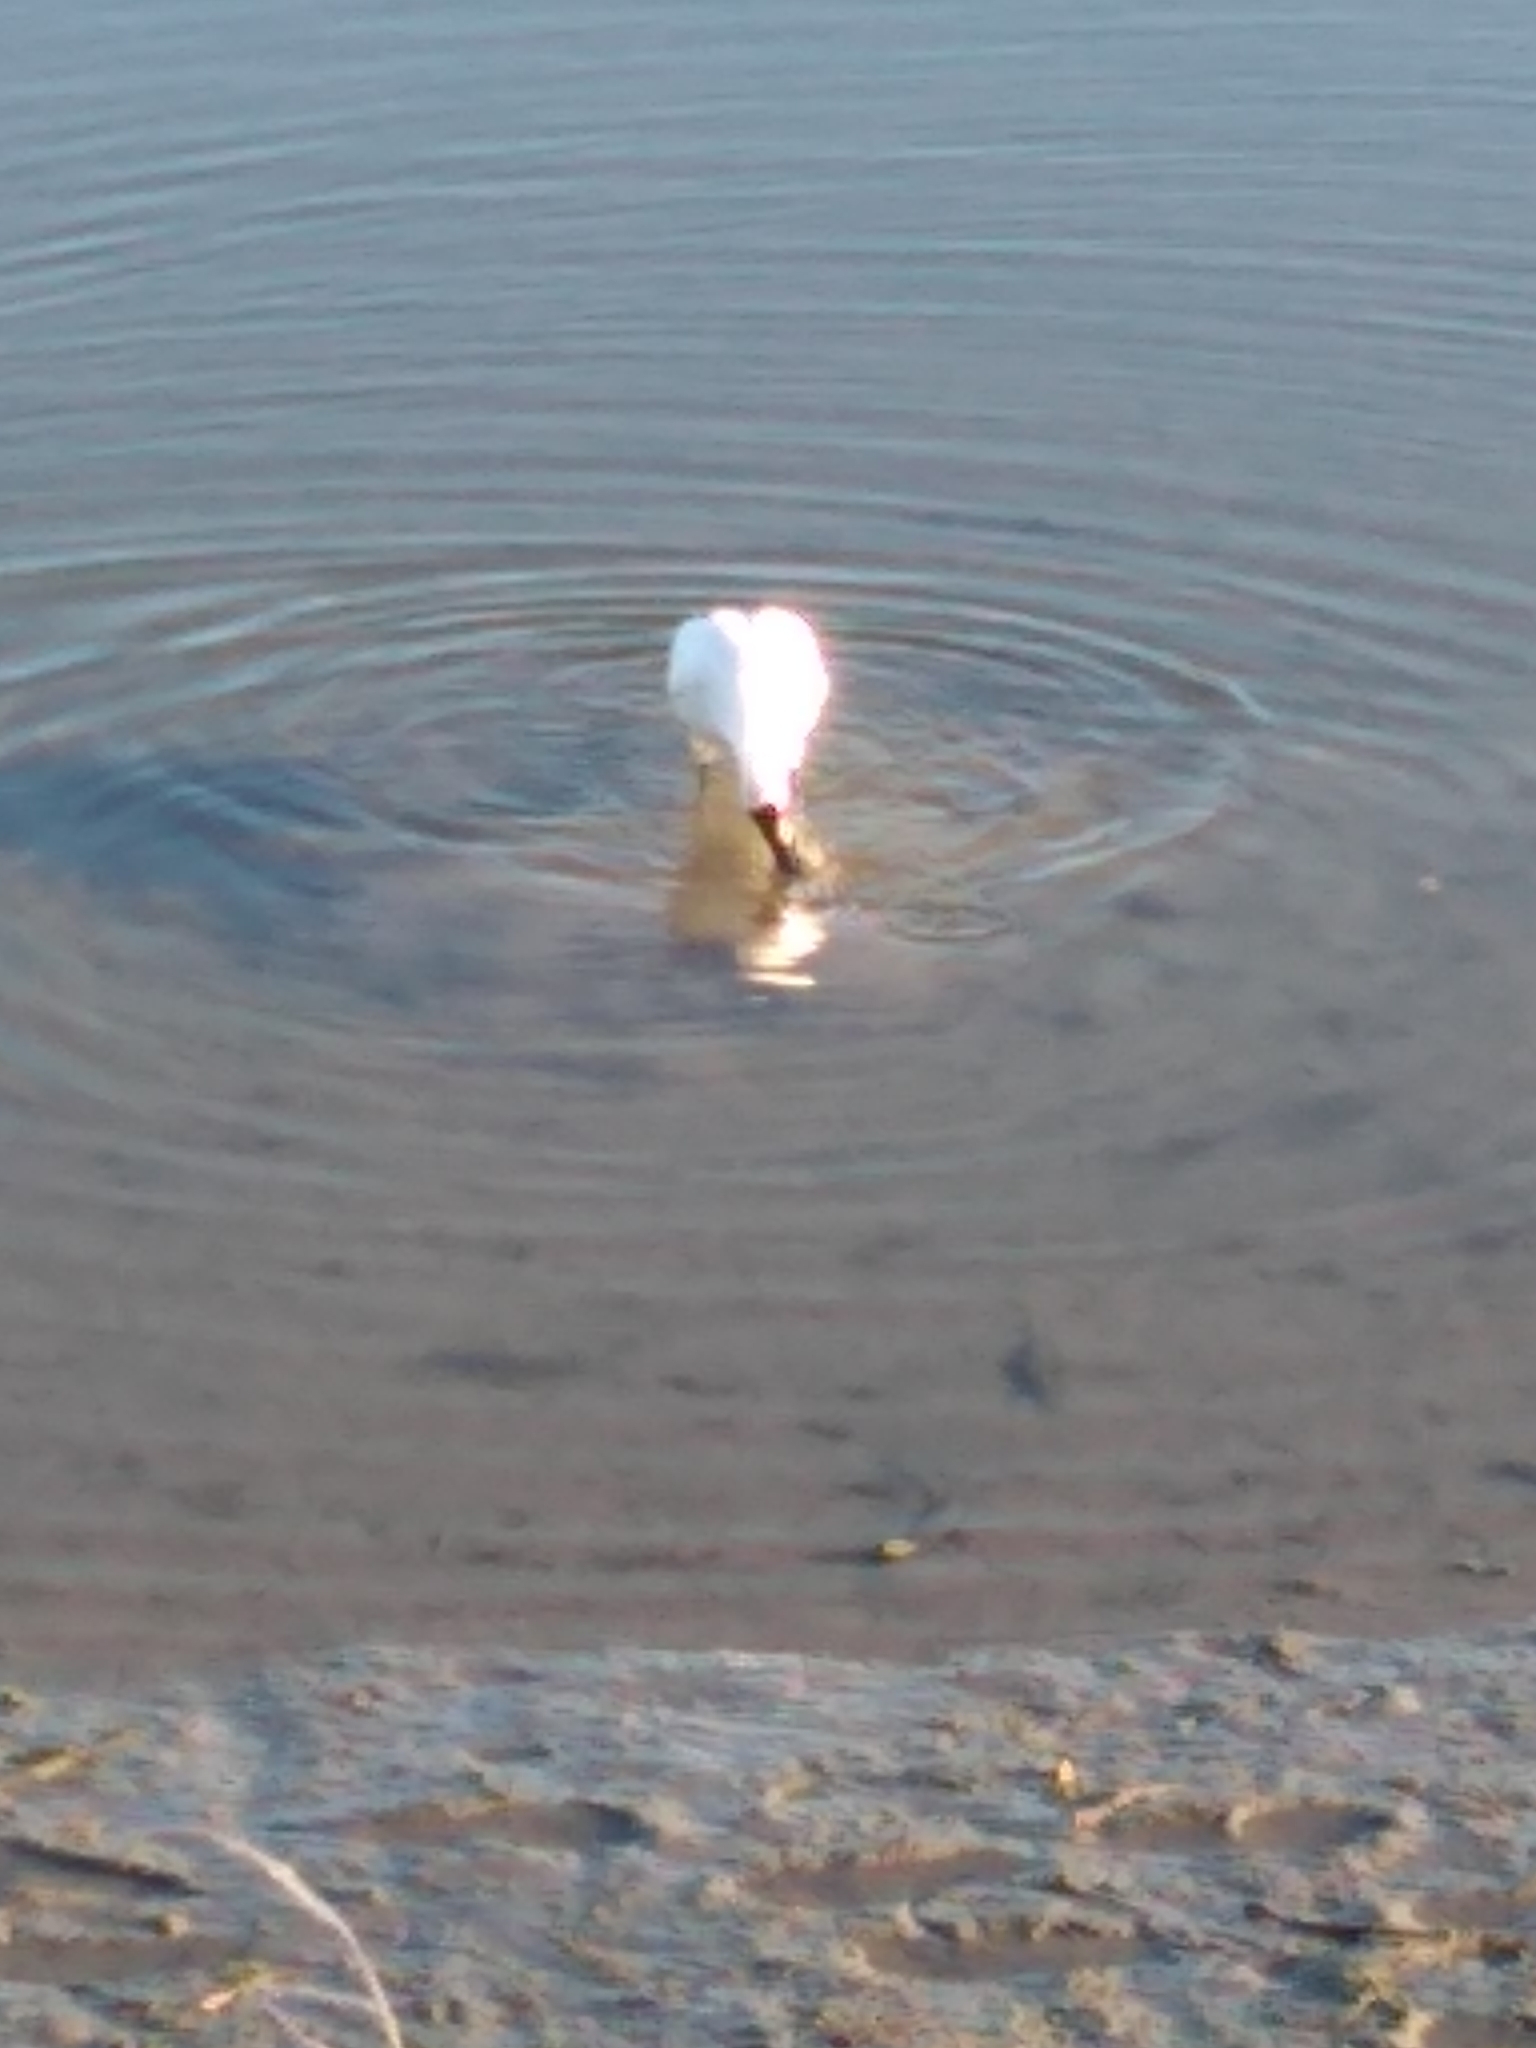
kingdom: Animalia
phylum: Chordata
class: Aves
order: Pelecaniformes
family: Threskiornithidae
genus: Platalea
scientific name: Platalea regia
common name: Royal spoonbill
